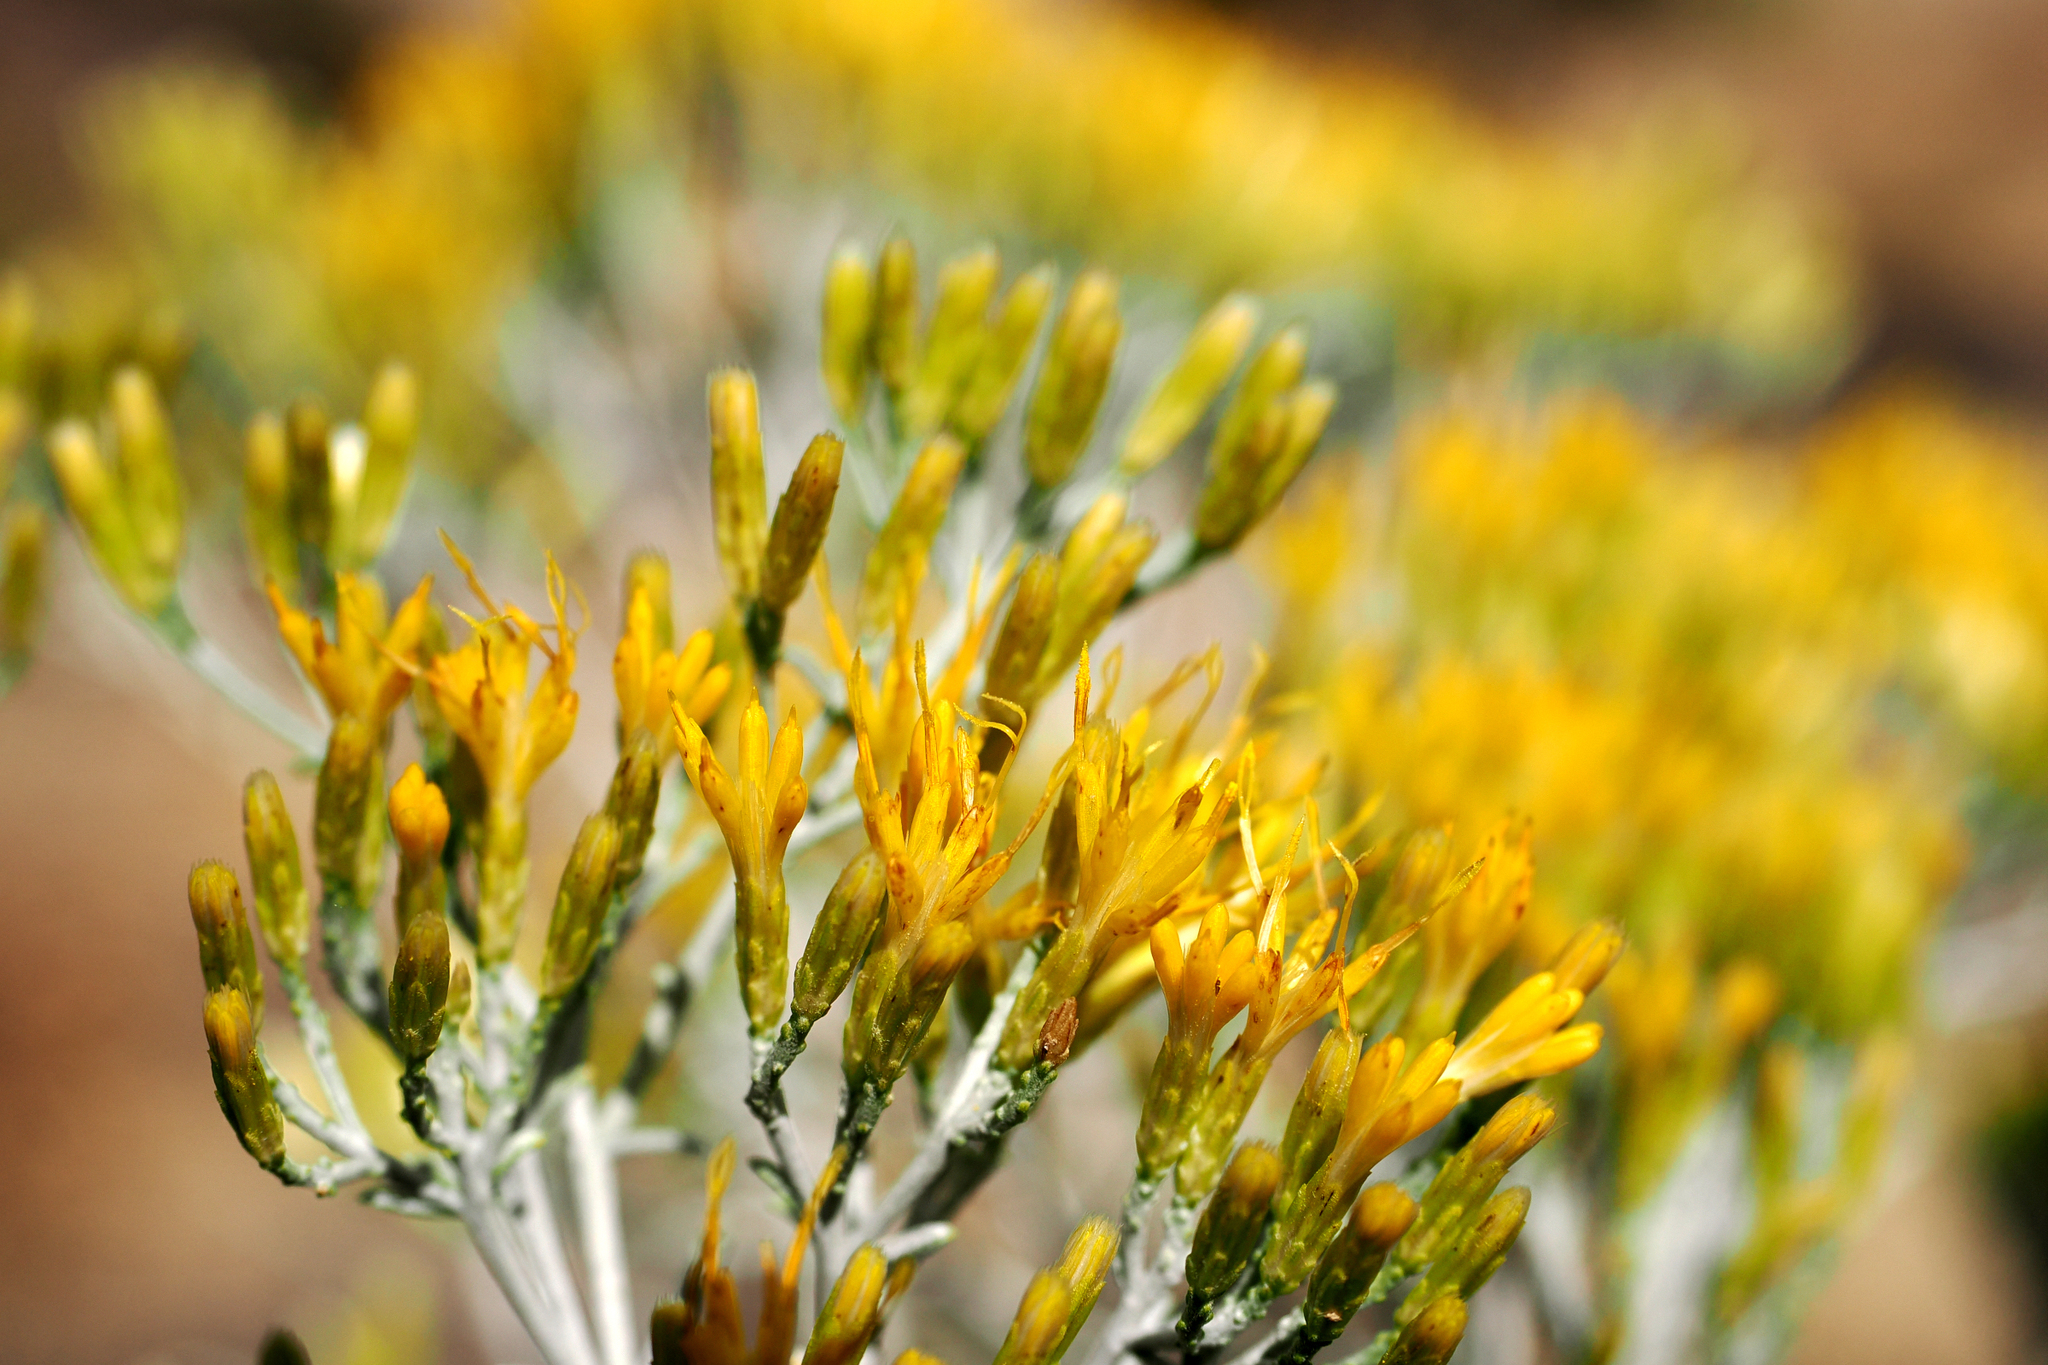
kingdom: Plantae
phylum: Tracheophyta
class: Magnoliopsida
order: Asterales
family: Asteraceae
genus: Ericameria
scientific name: Ericameria nauseosa
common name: Rubber rabbitbrush
